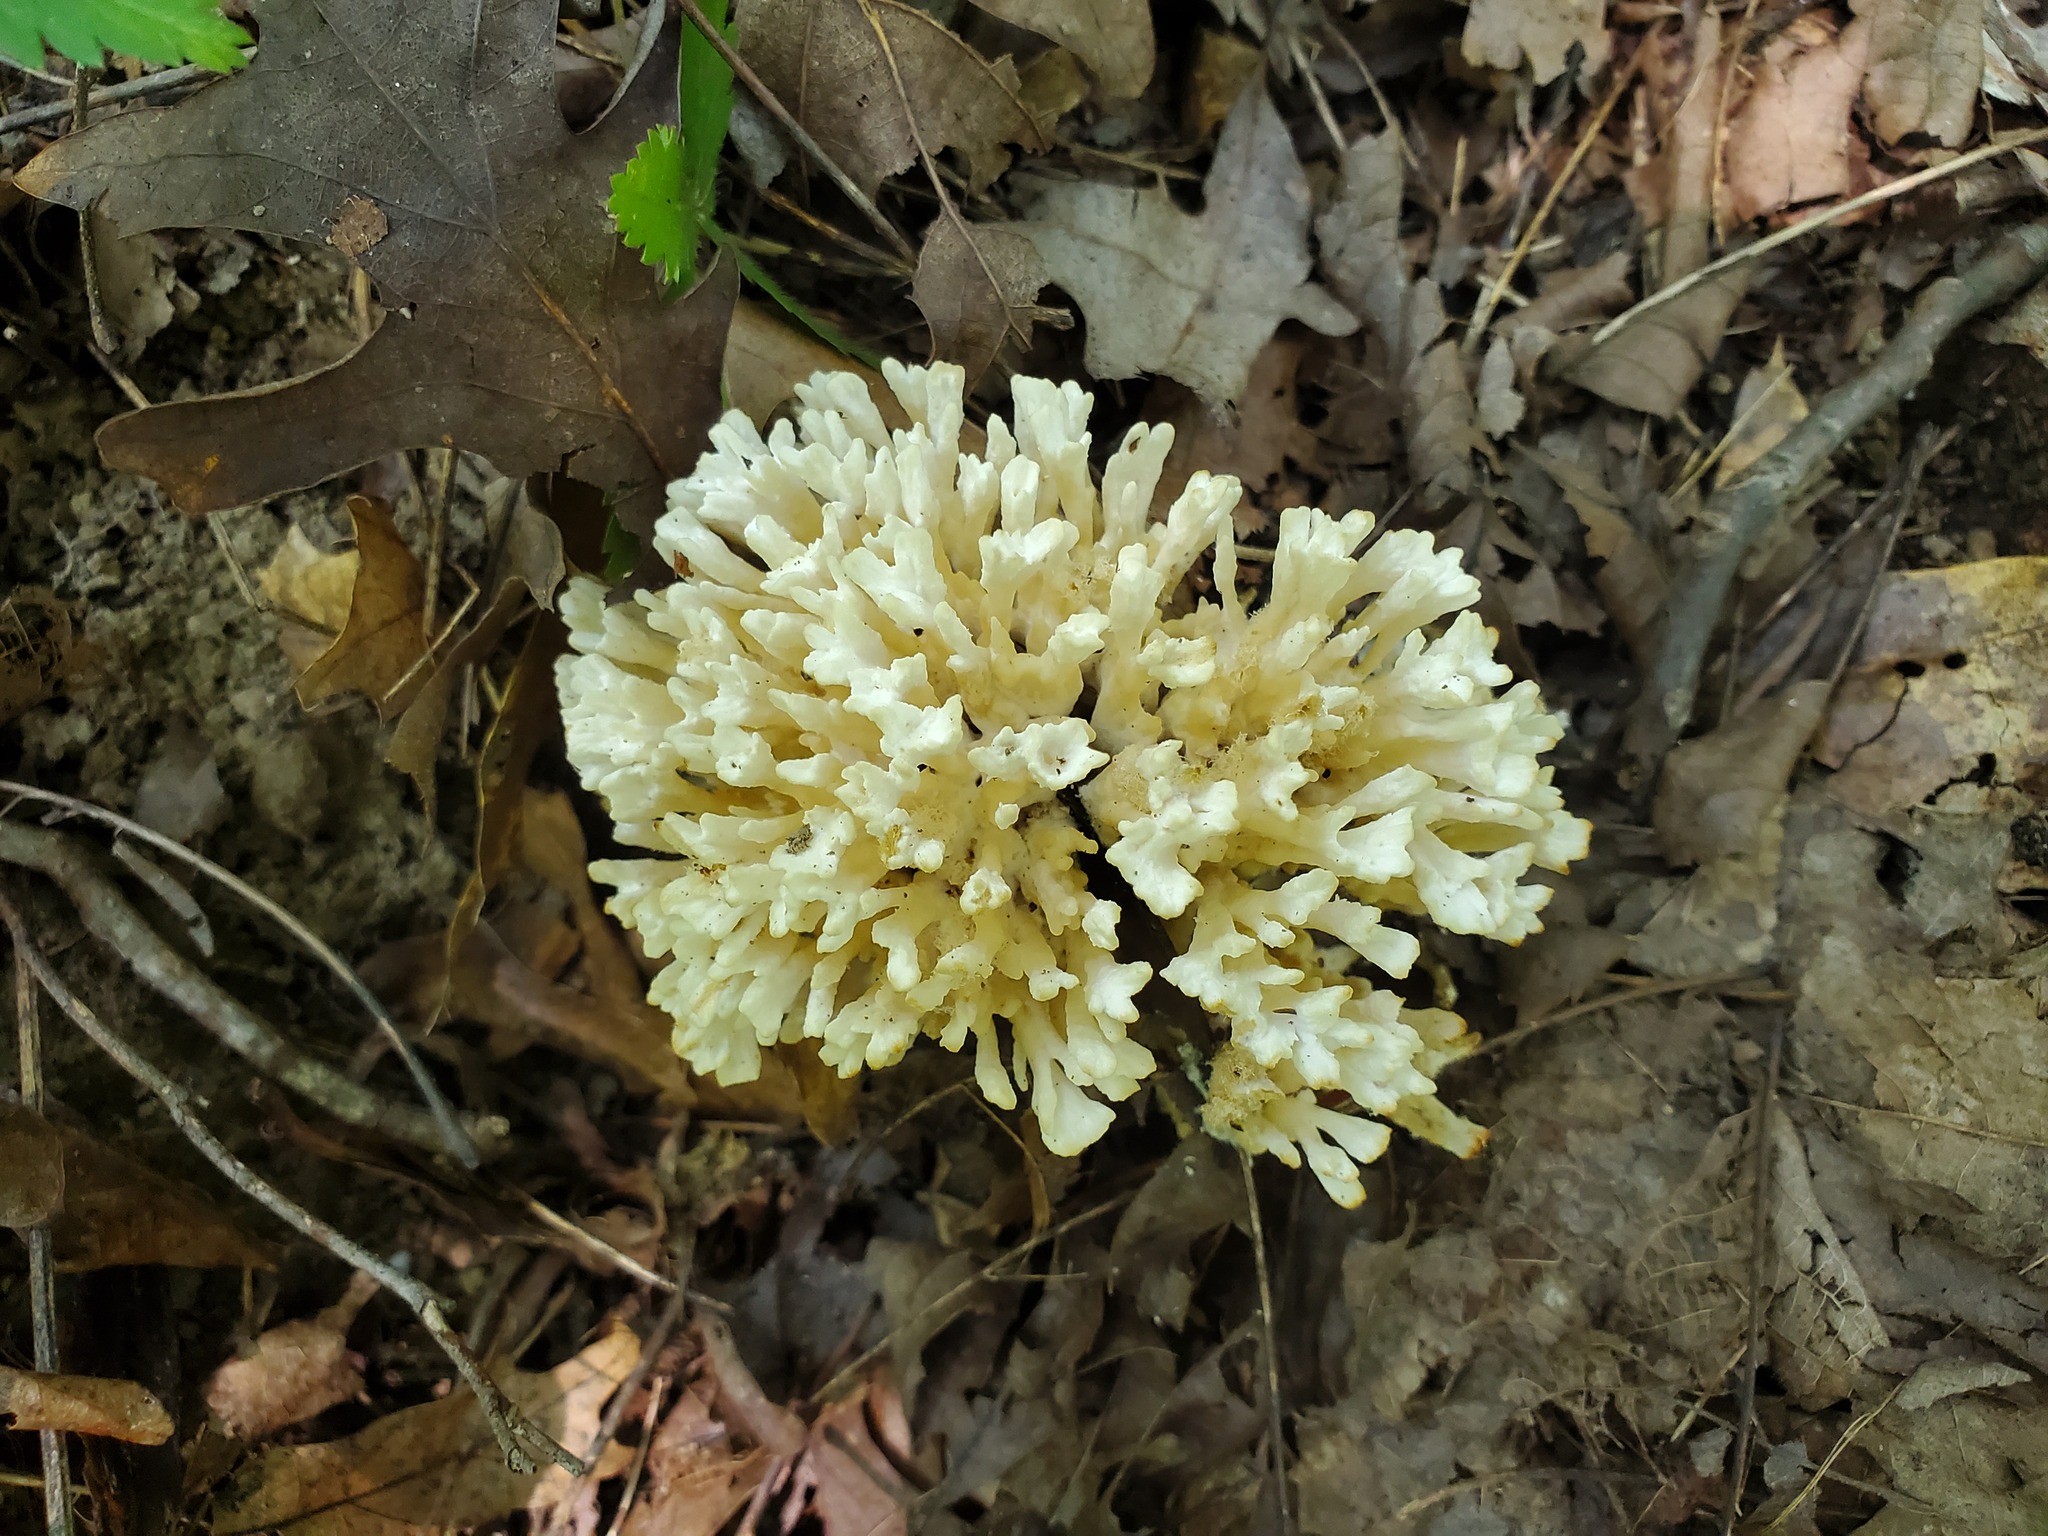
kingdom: Fungi
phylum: Basidiomycota
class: Agaricomycetes
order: Sebacinales
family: Sebacinaceae
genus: Sebacina
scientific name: Sebacina schweinitzii
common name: Jellied false coral fungus
